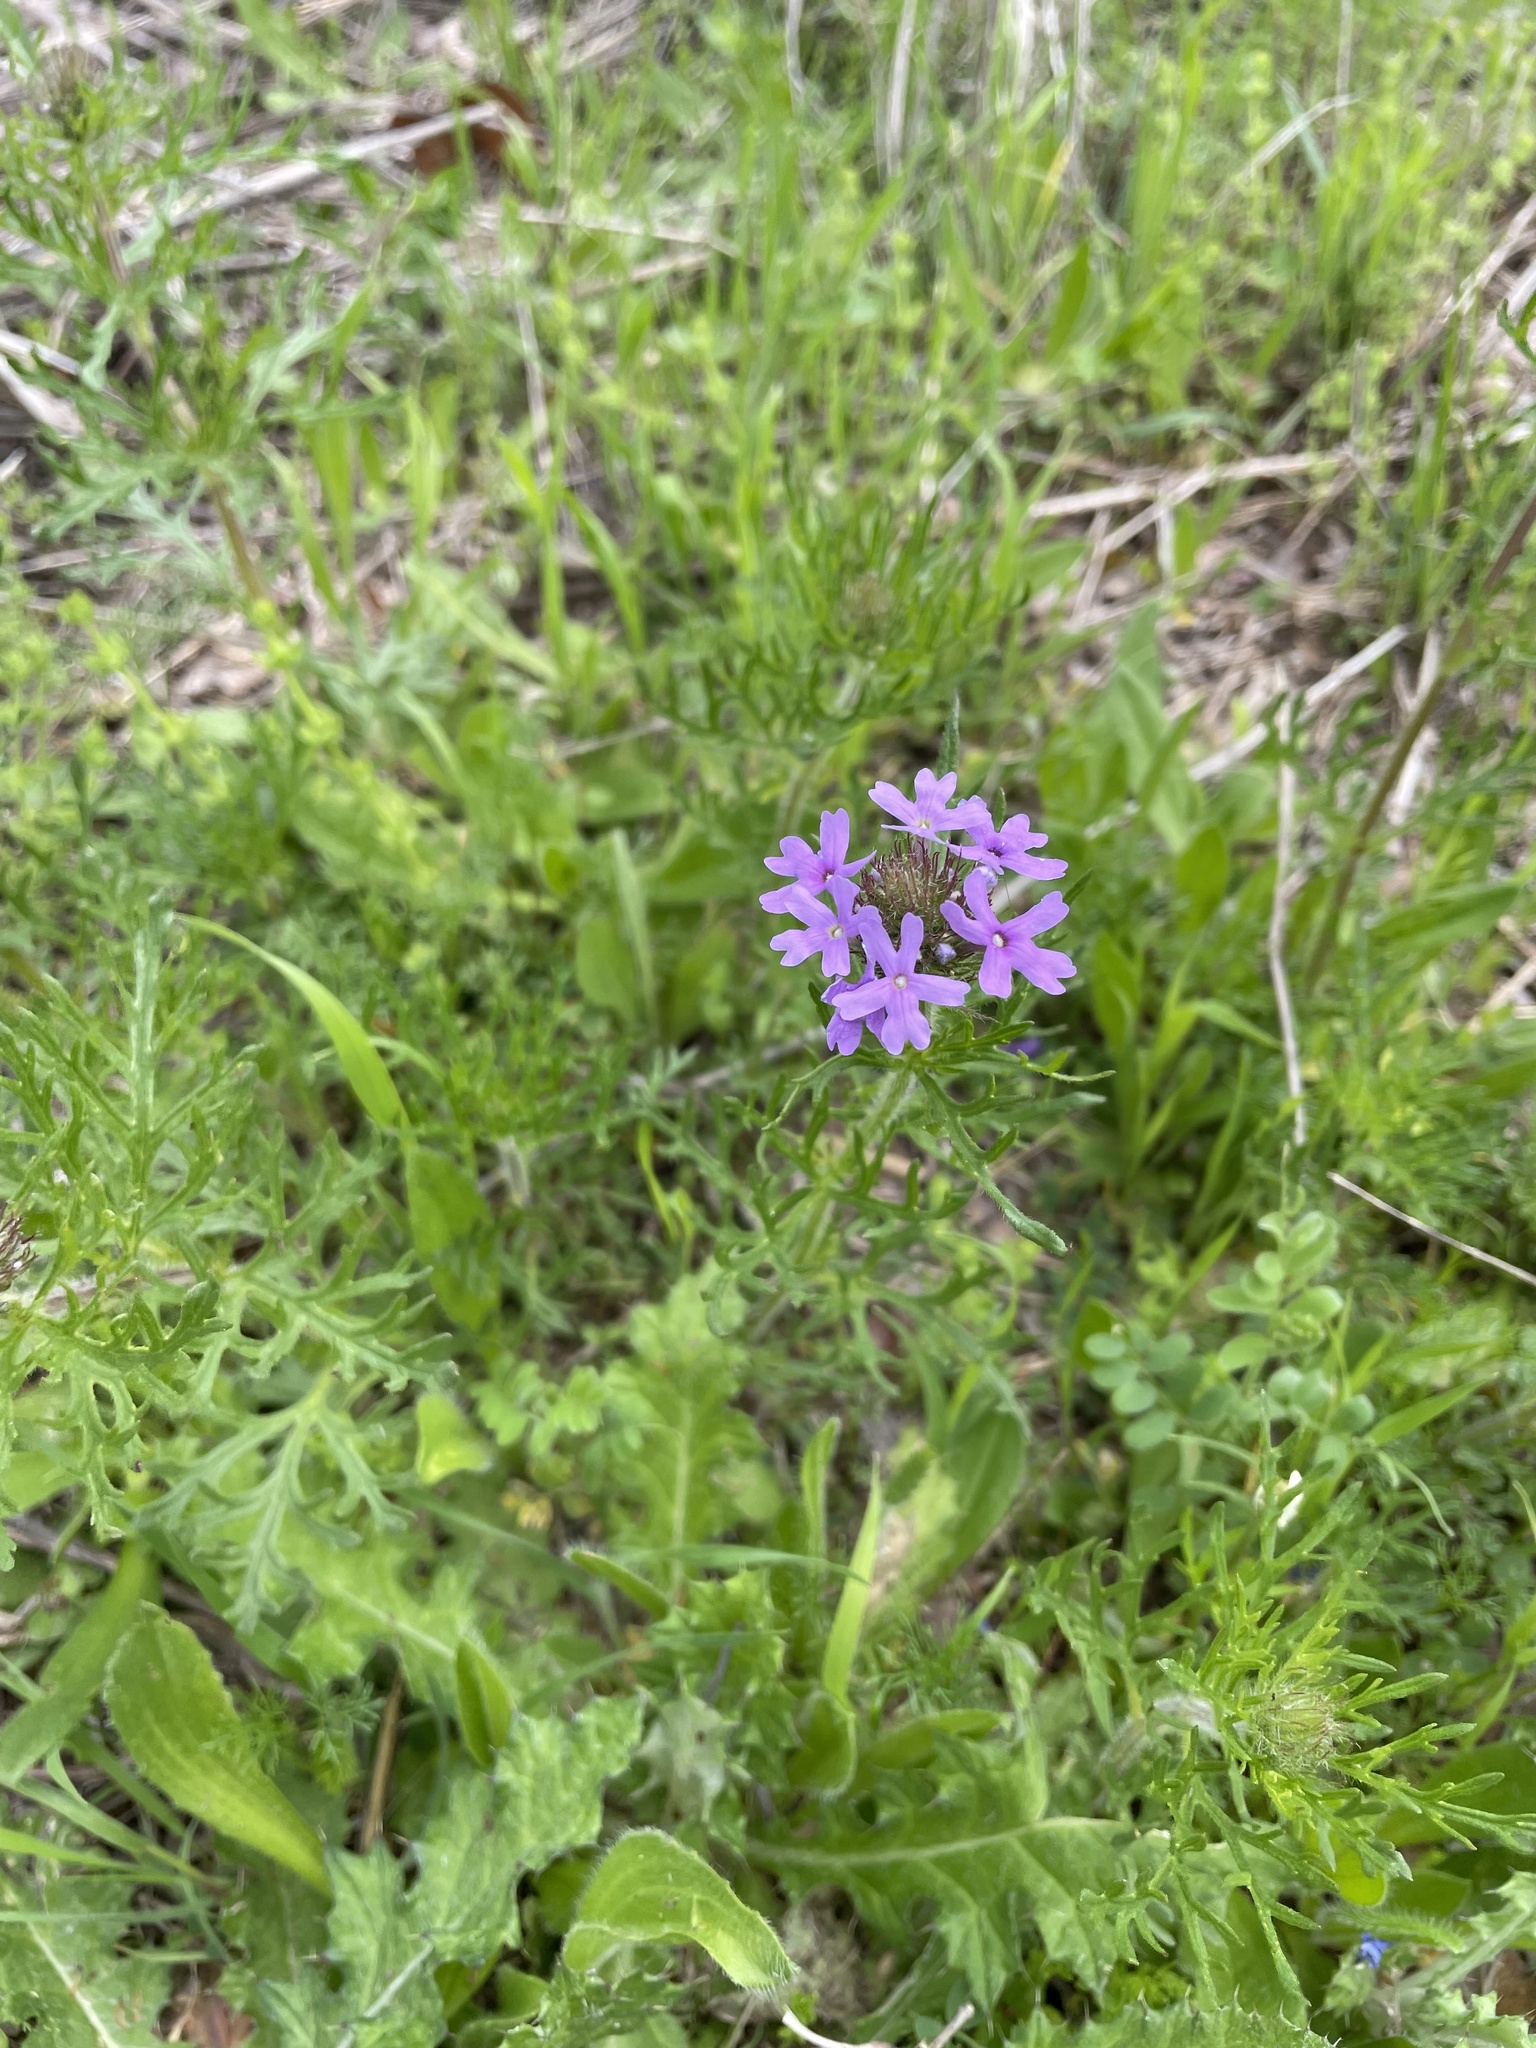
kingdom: Plantae
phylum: Tracheophyta
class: Magnoliopsida
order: Lamiales
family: Verbenaceae
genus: Verbena
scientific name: Verbena bipinnatifida
